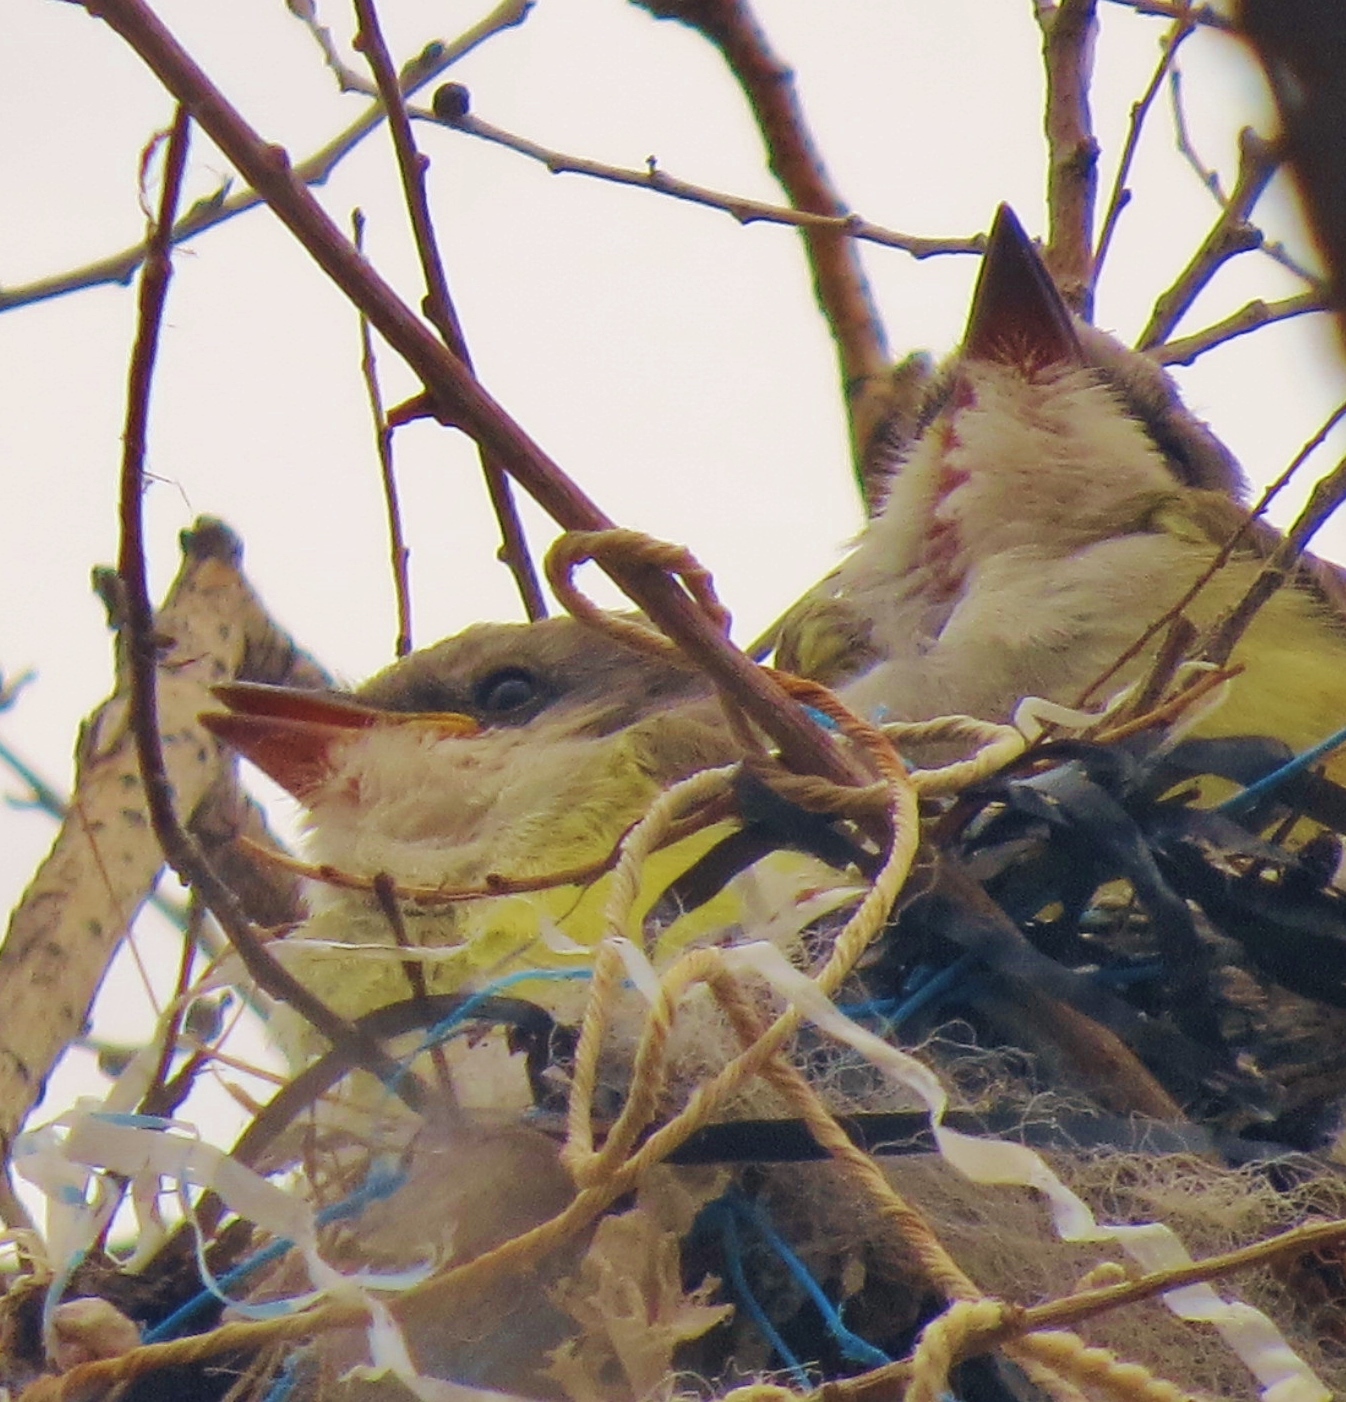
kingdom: Animalia
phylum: Chordata
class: Aves
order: Passeriformes
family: Tyrannidae
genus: Tyrannus
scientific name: Tyrannus verticalis
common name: Western kingbird
